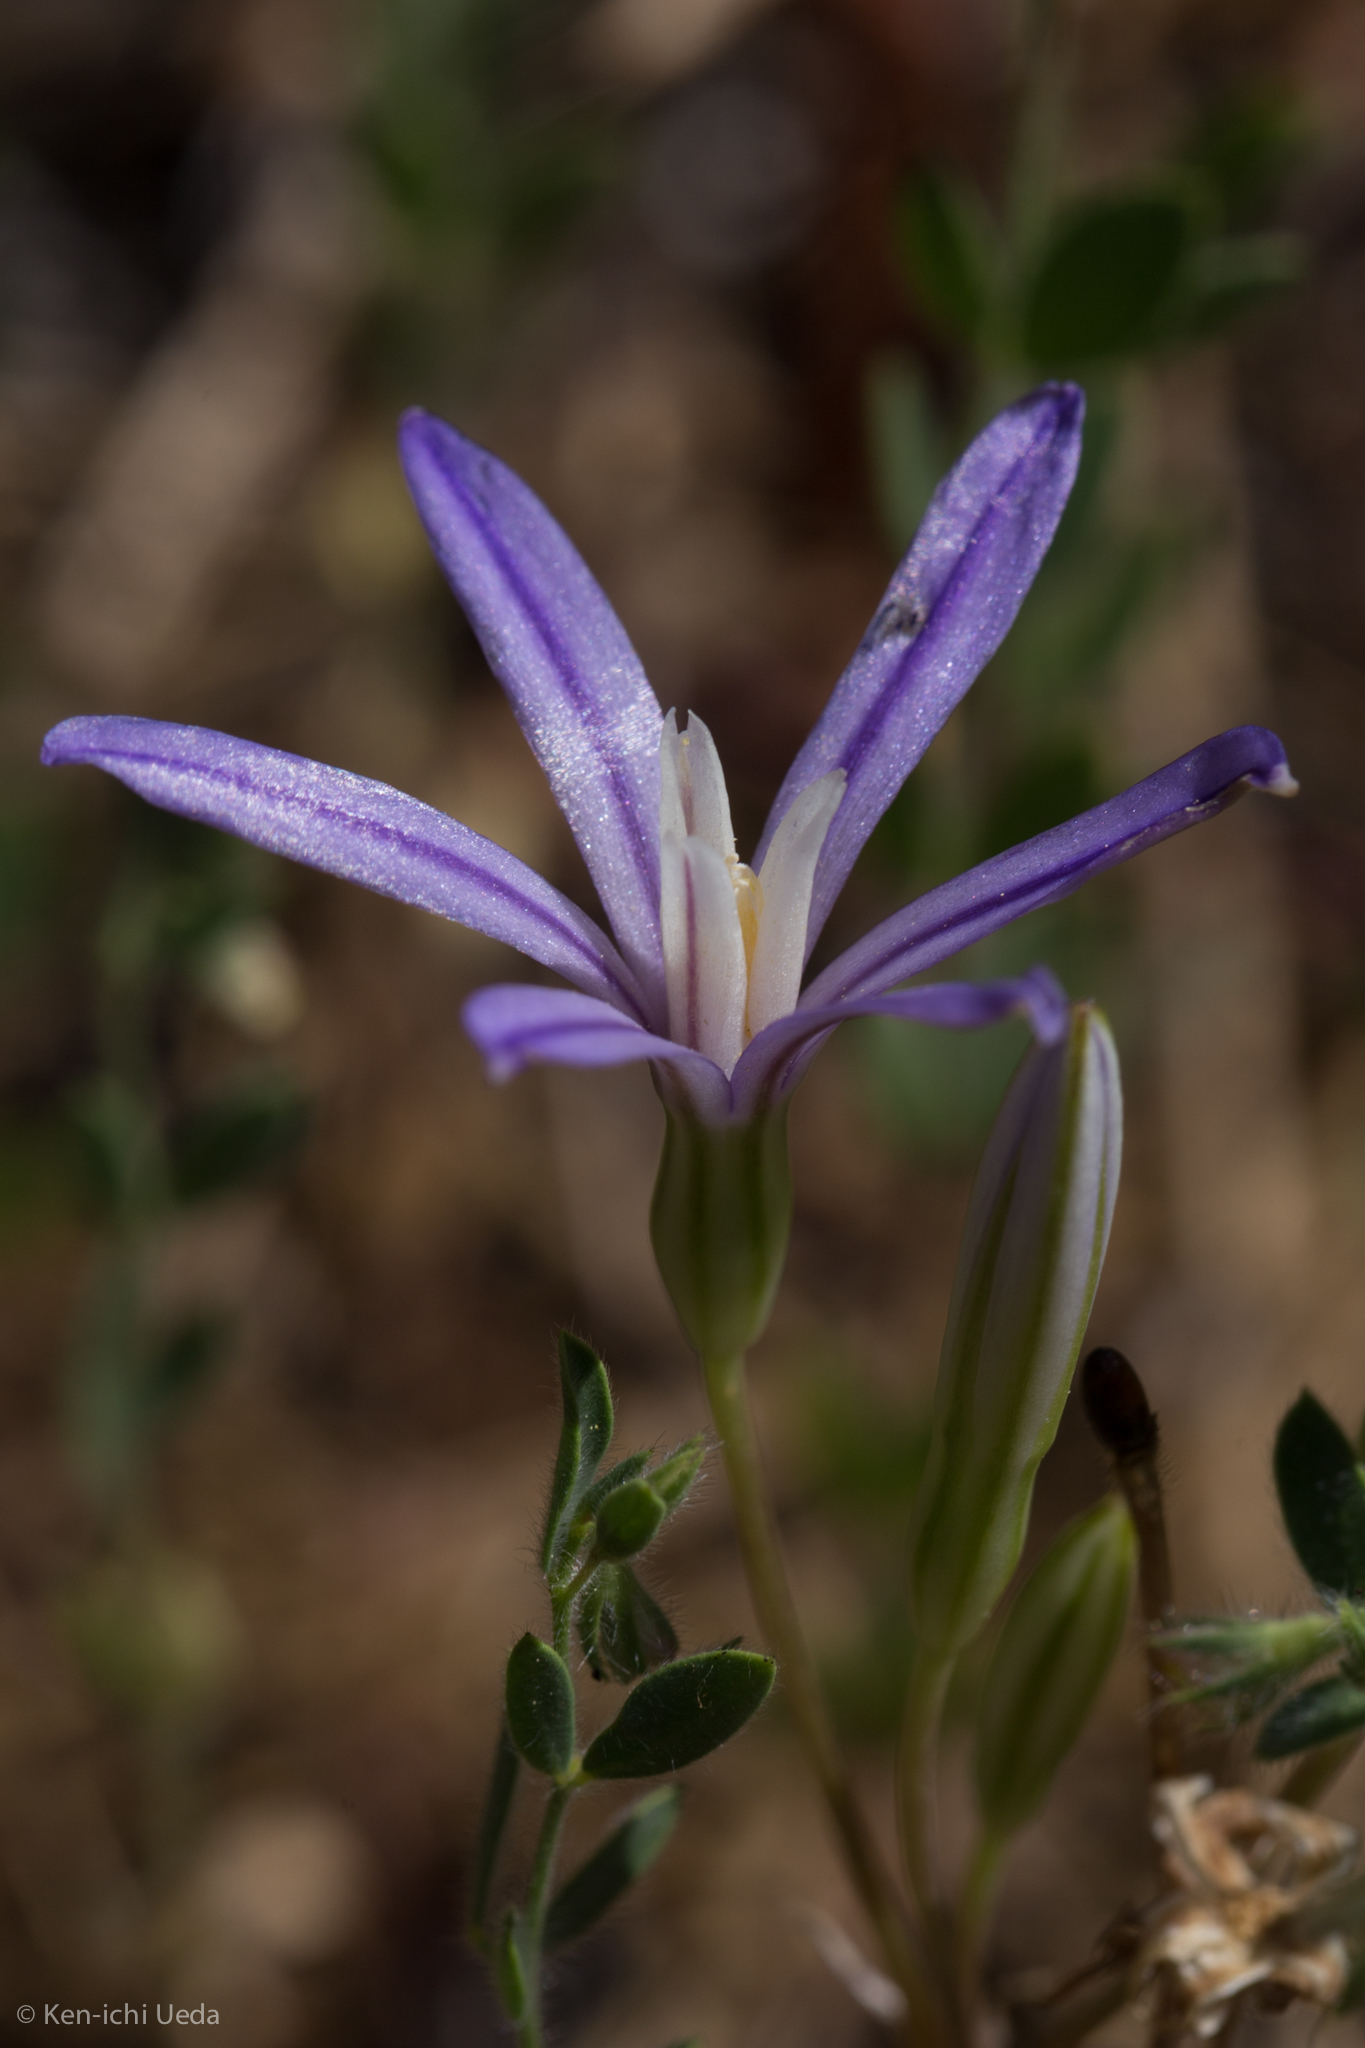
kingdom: Plantae
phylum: Tracheophyta
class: Liliopsida
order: Asparagales
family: Asparagaceae
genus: Brodiaea
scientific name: Brodiaea minor
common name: Dwarf brodiaea
